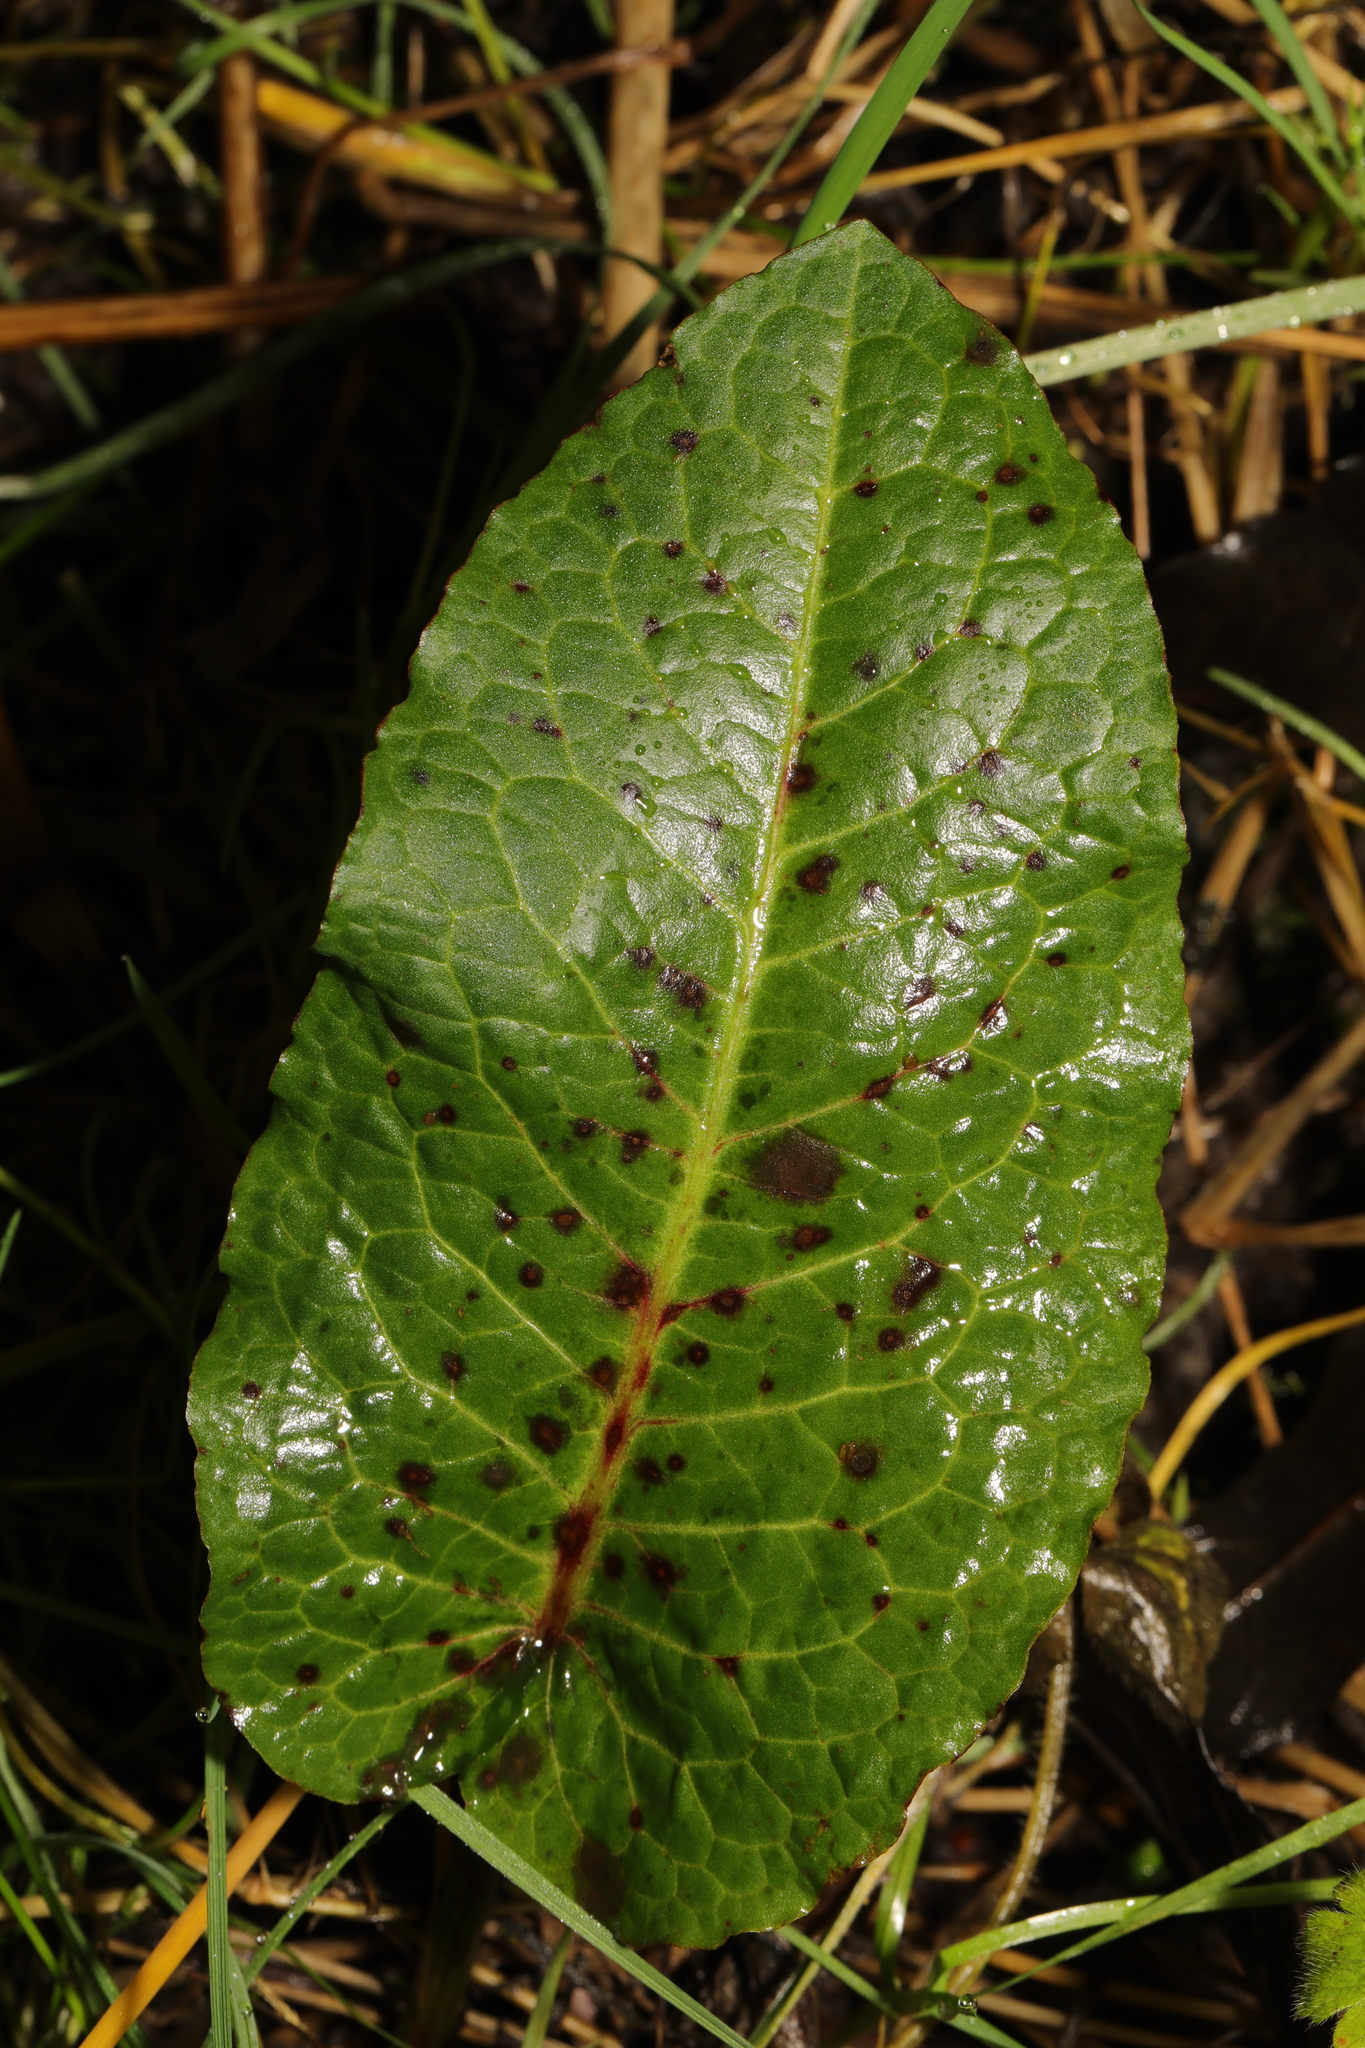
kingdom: Plantae
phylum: Tracheophyta
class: Magnoliopsida
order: Caryophyllales
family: Polygonaceae
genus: Rumex
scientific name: Rumex obtusifolius
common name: Bitter dock
